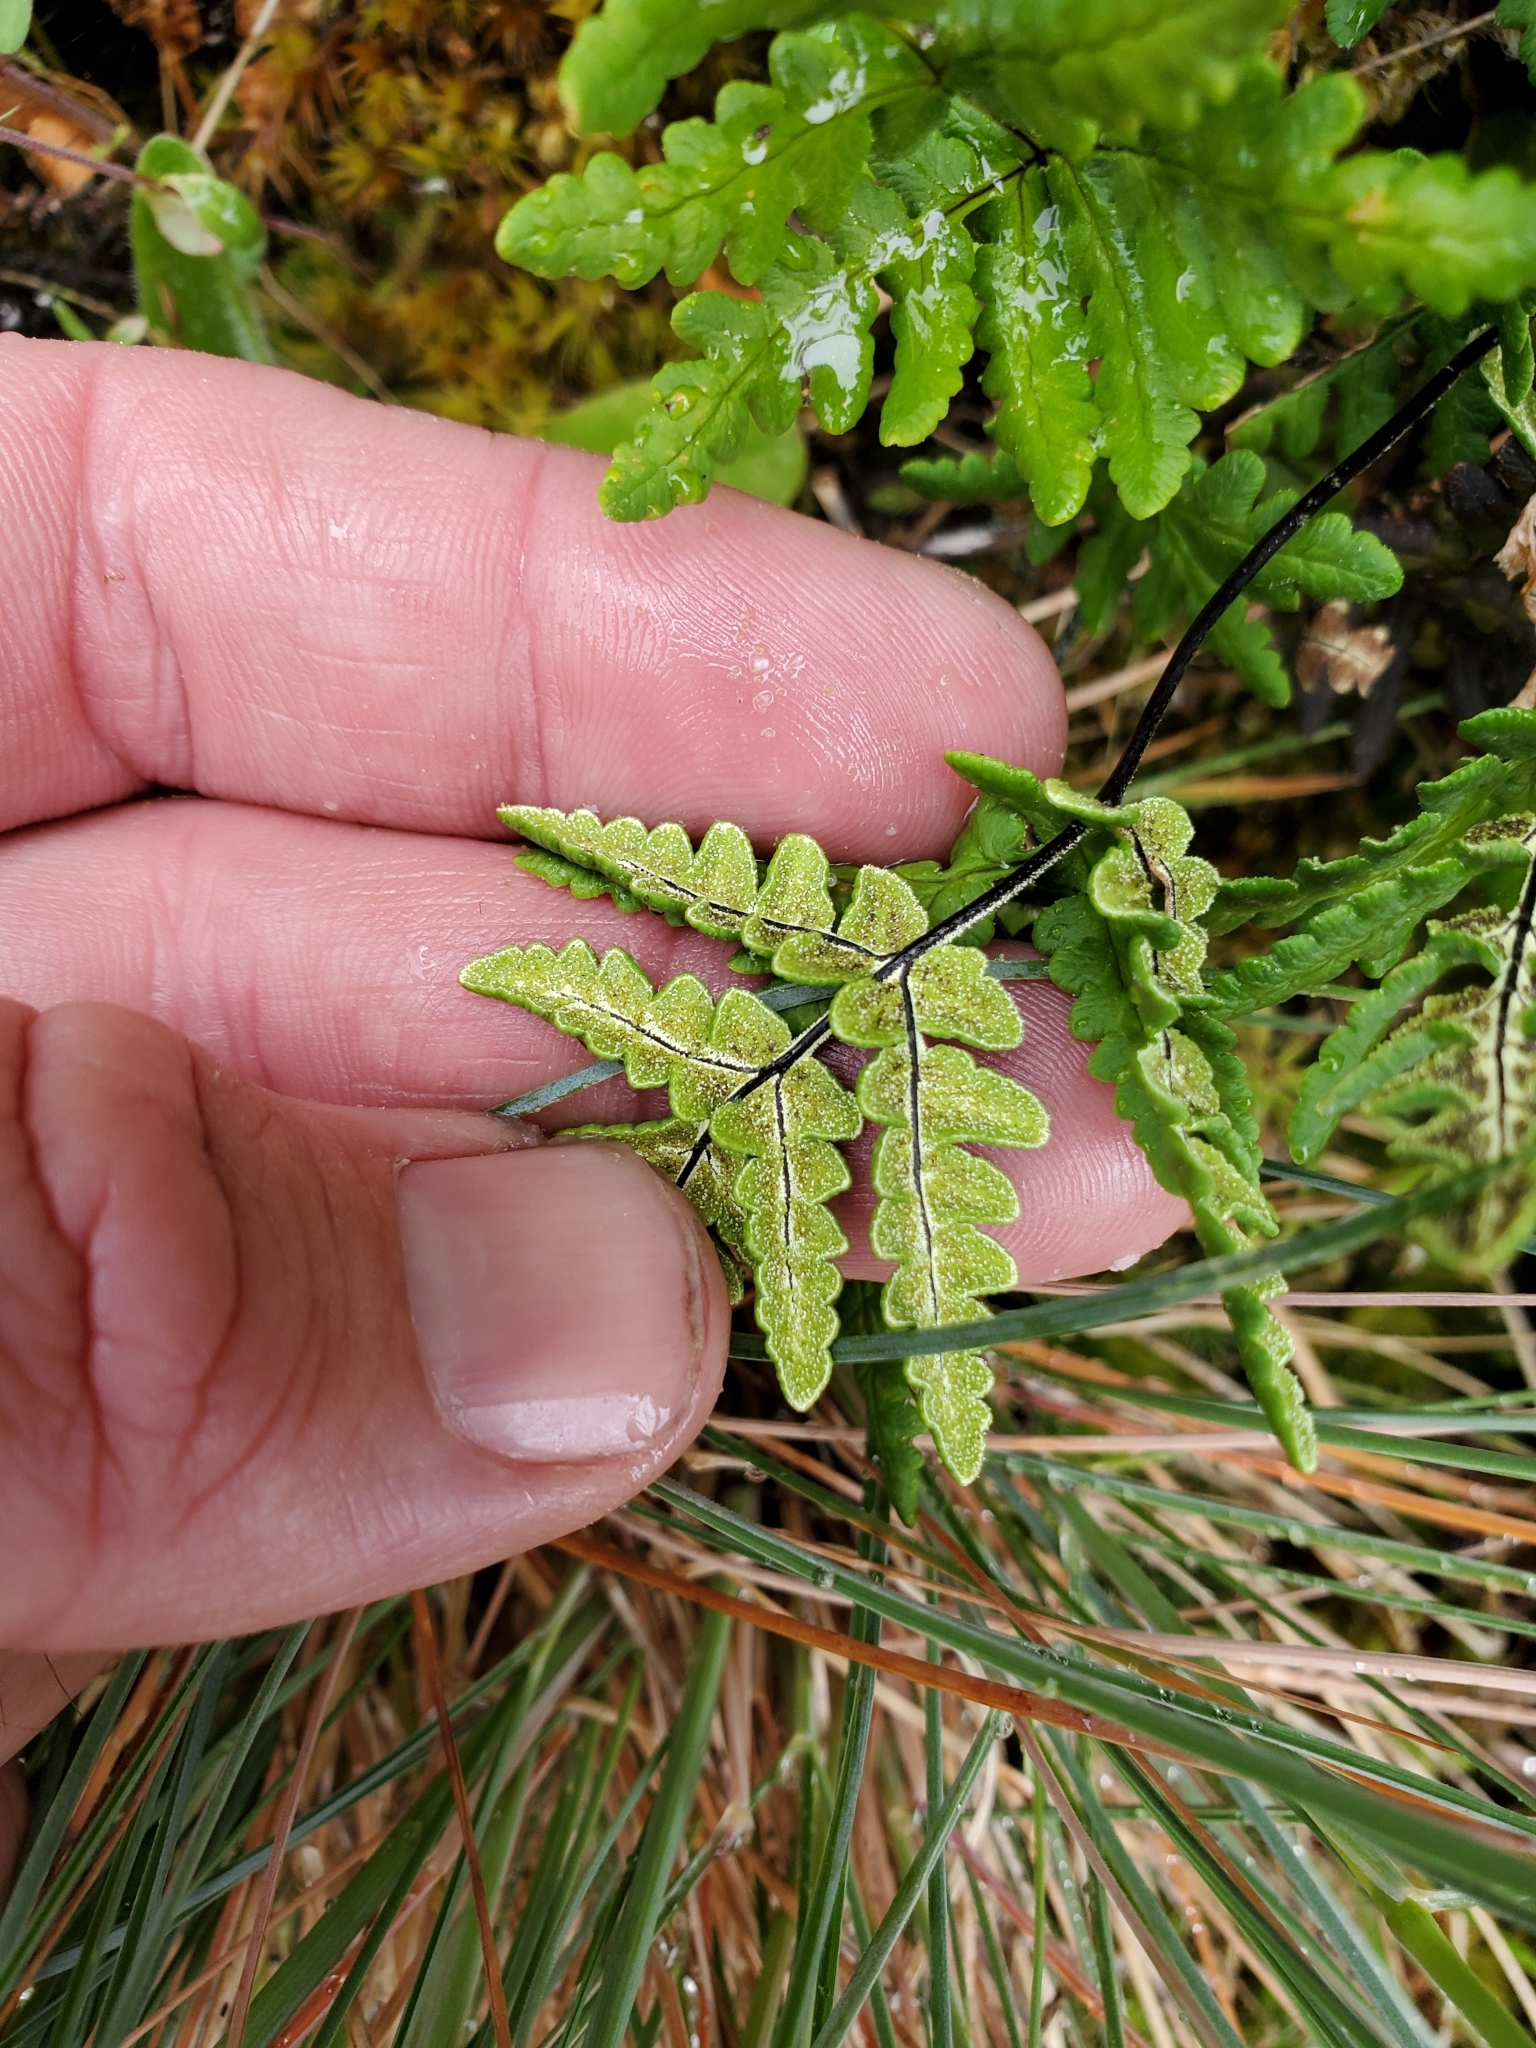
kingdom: Plantae
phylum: Tracheophyta
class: Polypodiopsida
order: Polypodiales
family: Pteridaceae
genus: Pentagramma
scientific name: Pentagramma triangularis
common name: Gold fern
